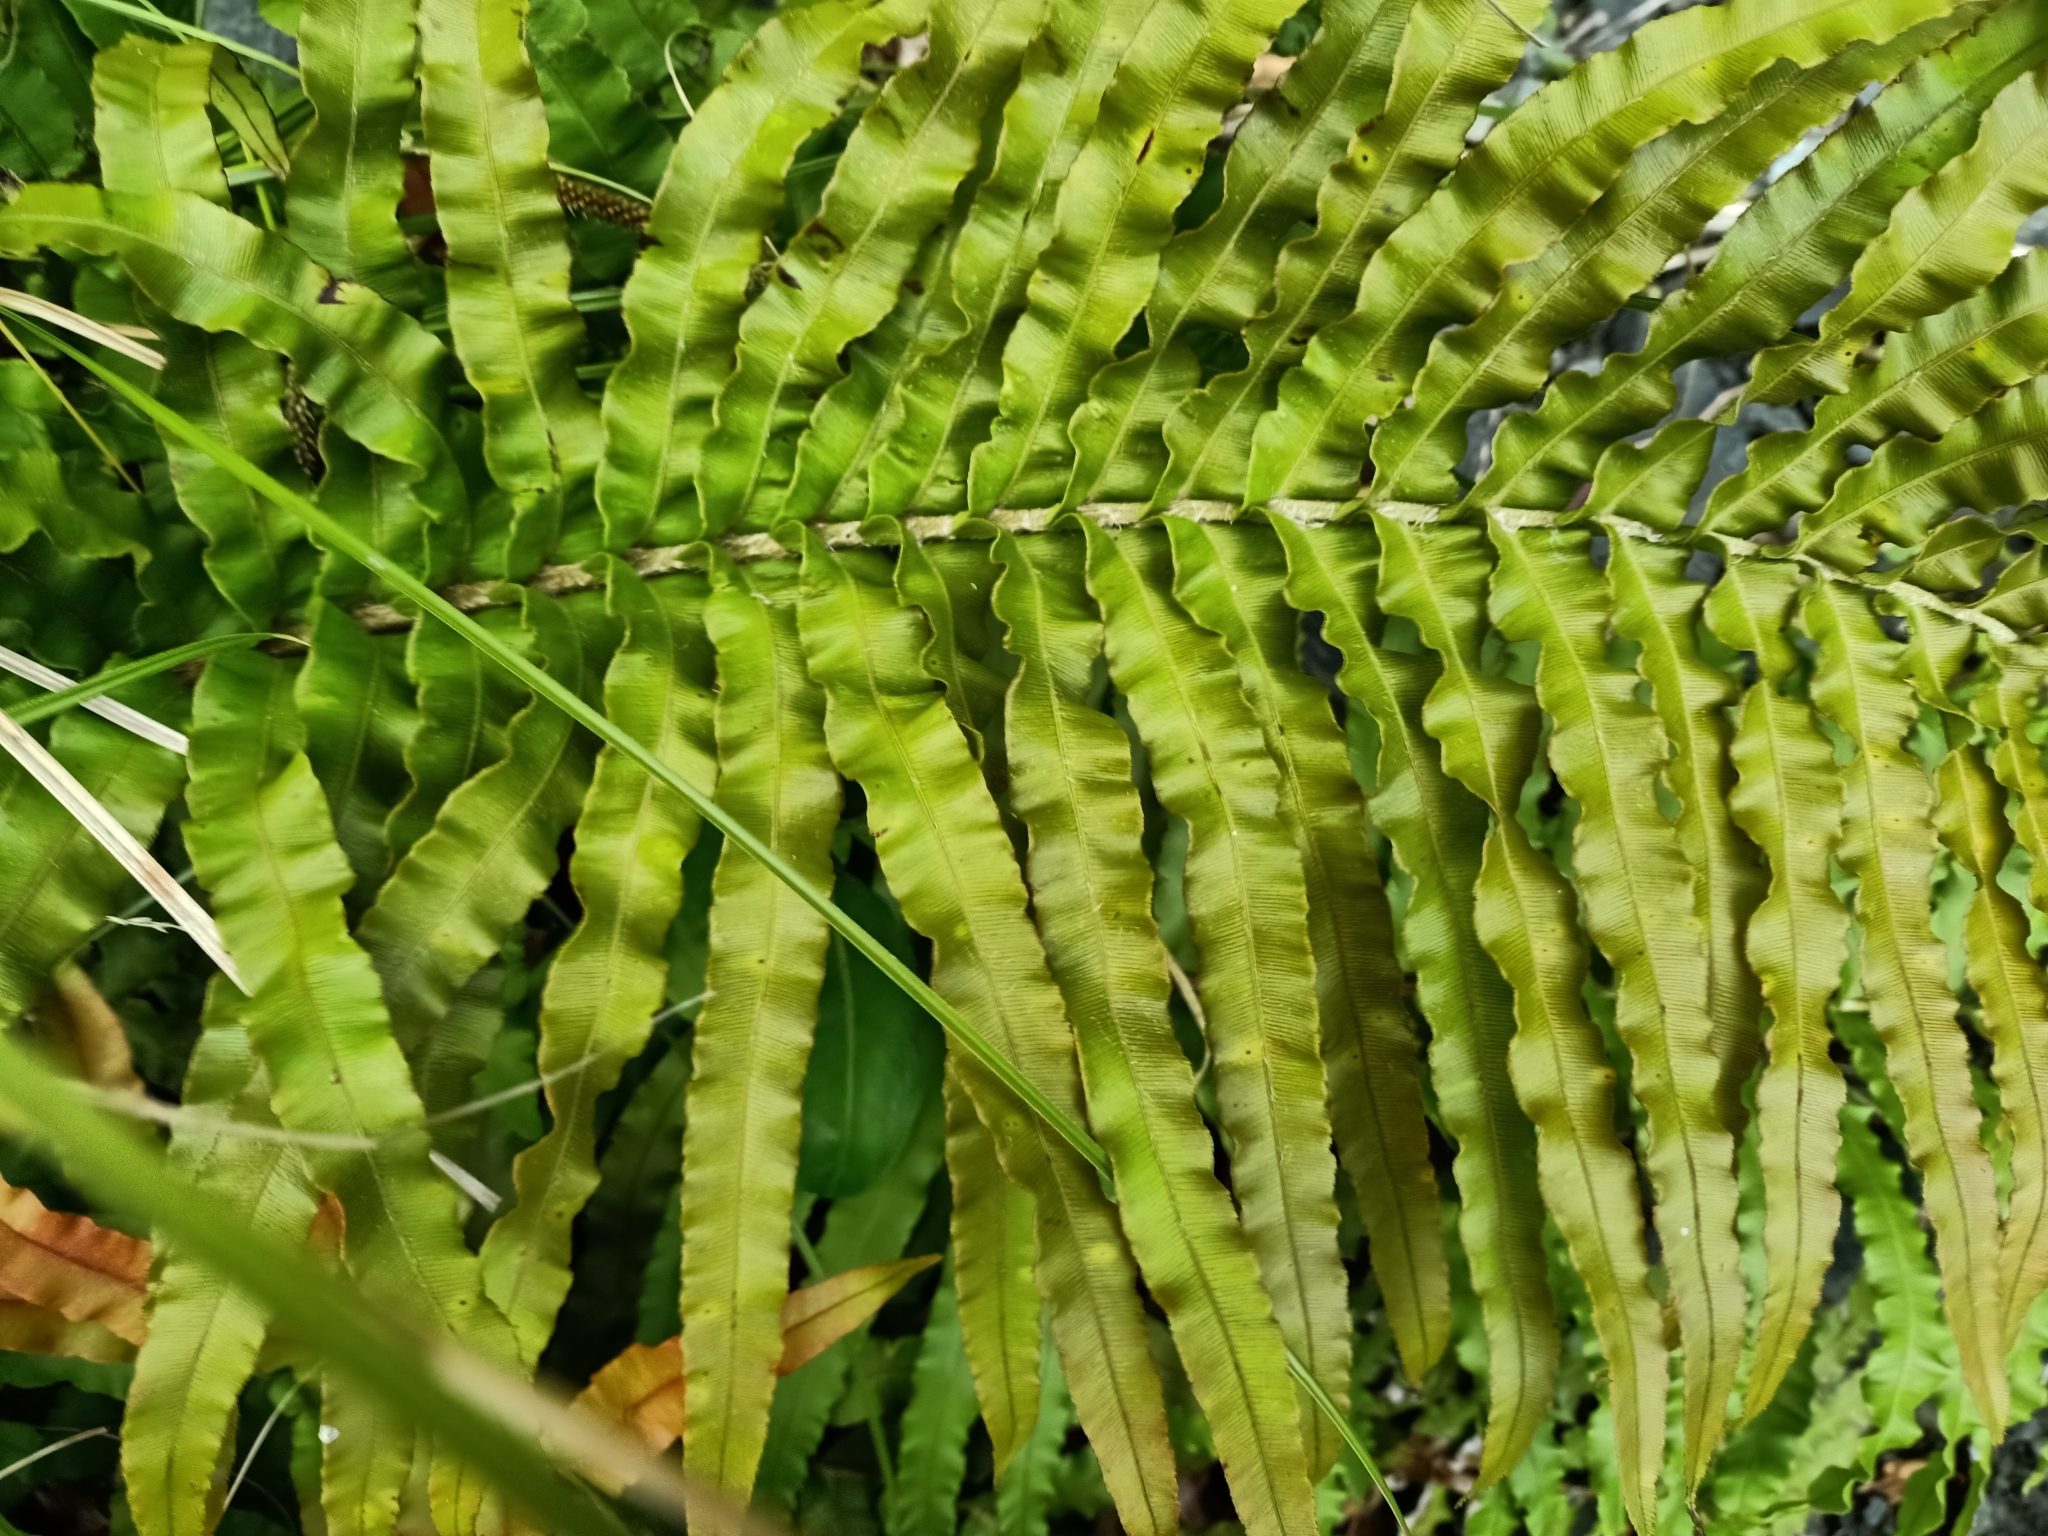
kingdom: Plantae
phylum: Tracheophyta
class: Polypodiopsida
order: Polypodiales
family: Blechnaceae
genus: Parablechnum
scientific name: Parablechnum novae-zelandiae
